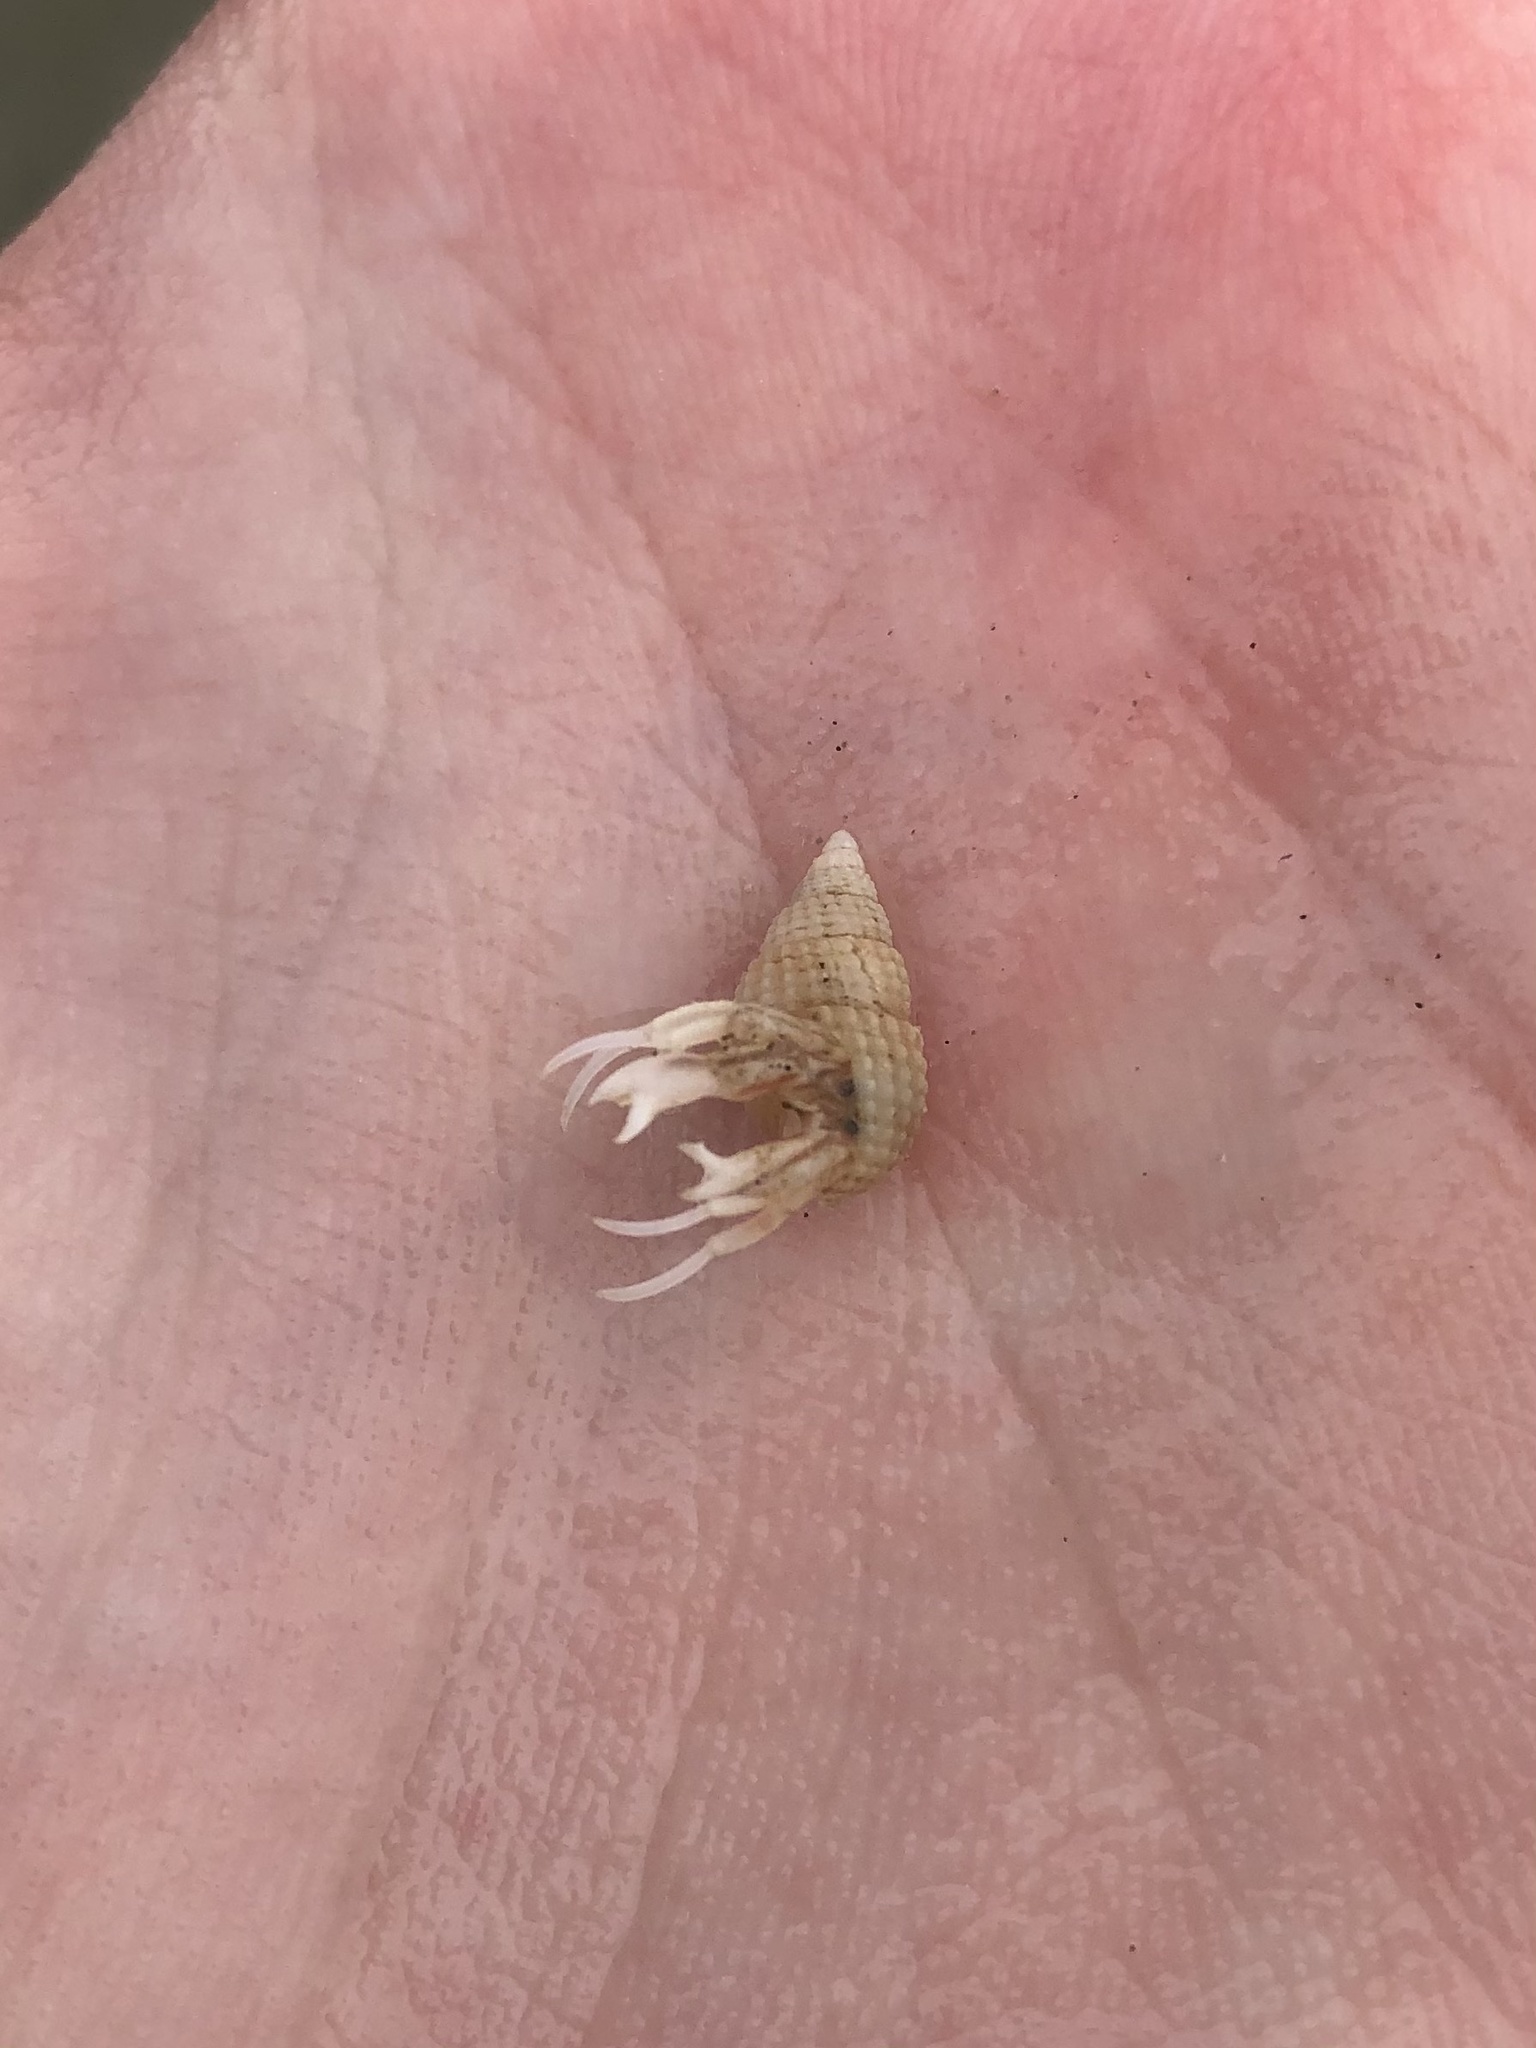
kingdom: Animalia
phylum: Arthropoda
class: Malacostraca
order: Decapoda
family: Paguridae
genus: Pagurus
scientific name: Pagurus longicarpus
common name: Long-armed hermit crab
